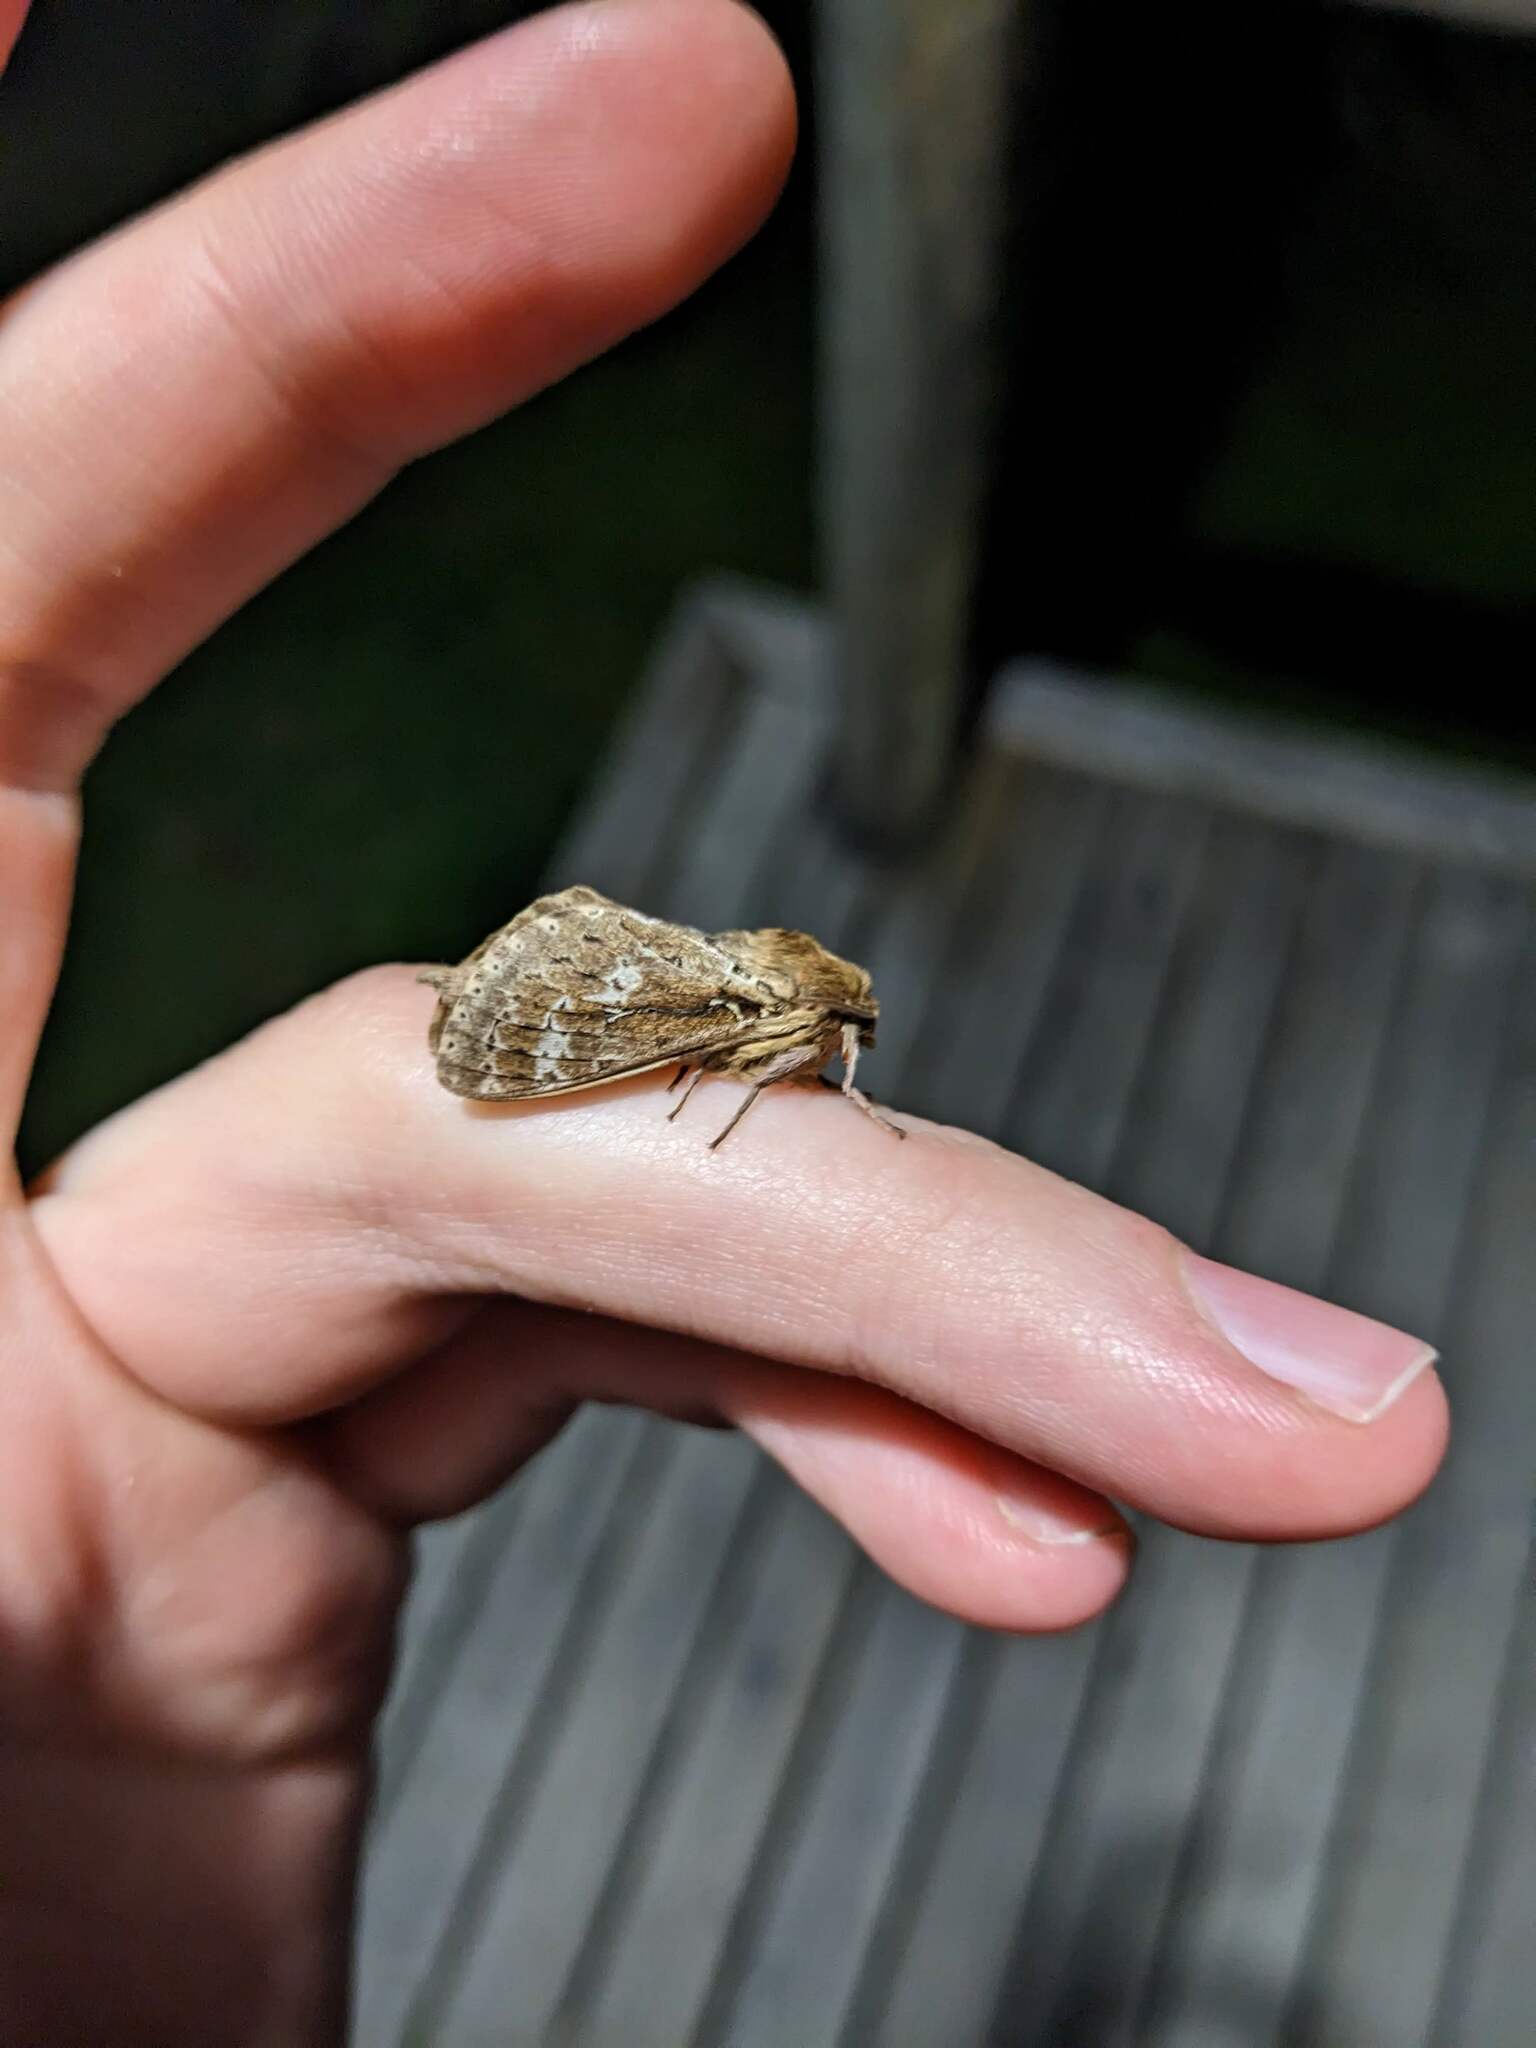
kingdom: Animalia
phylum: Arthropoda
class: Insecta
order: Lepidoptera
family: Hepialidae
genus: Wiseana
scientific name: Wiseana cervinata
